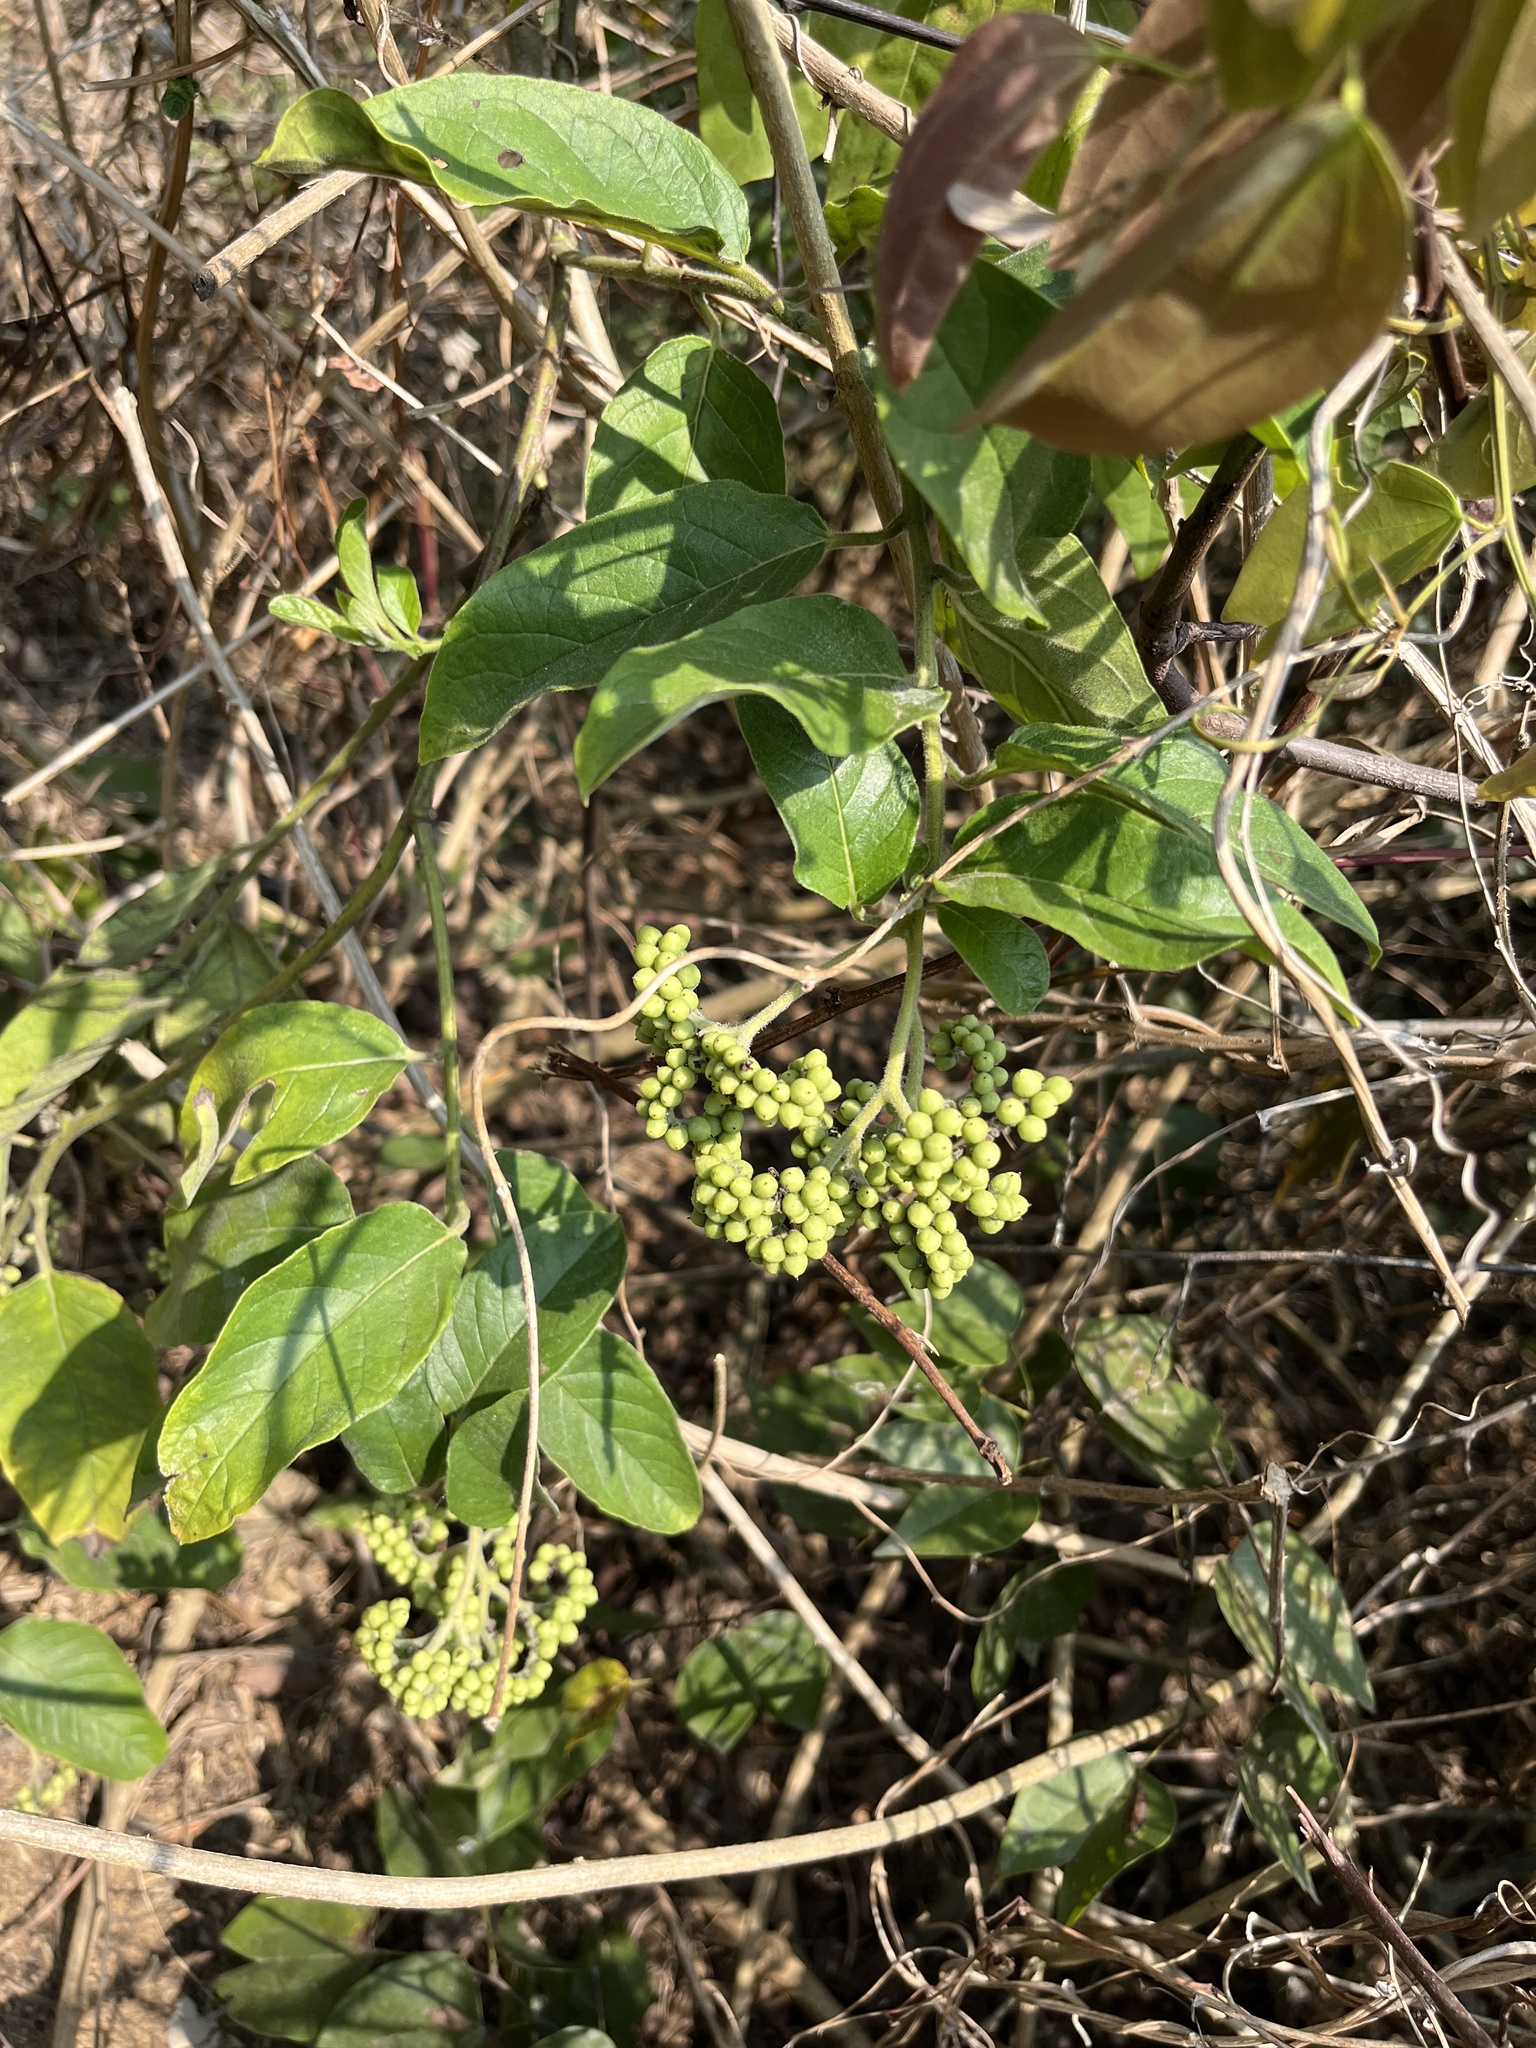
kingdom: Plantae
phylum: Tracheophyta
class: Magnoliopsida
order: Boraginales
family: Heliotropiaceae
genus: Heliotropium
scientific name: Heliotropium sarmentosum
